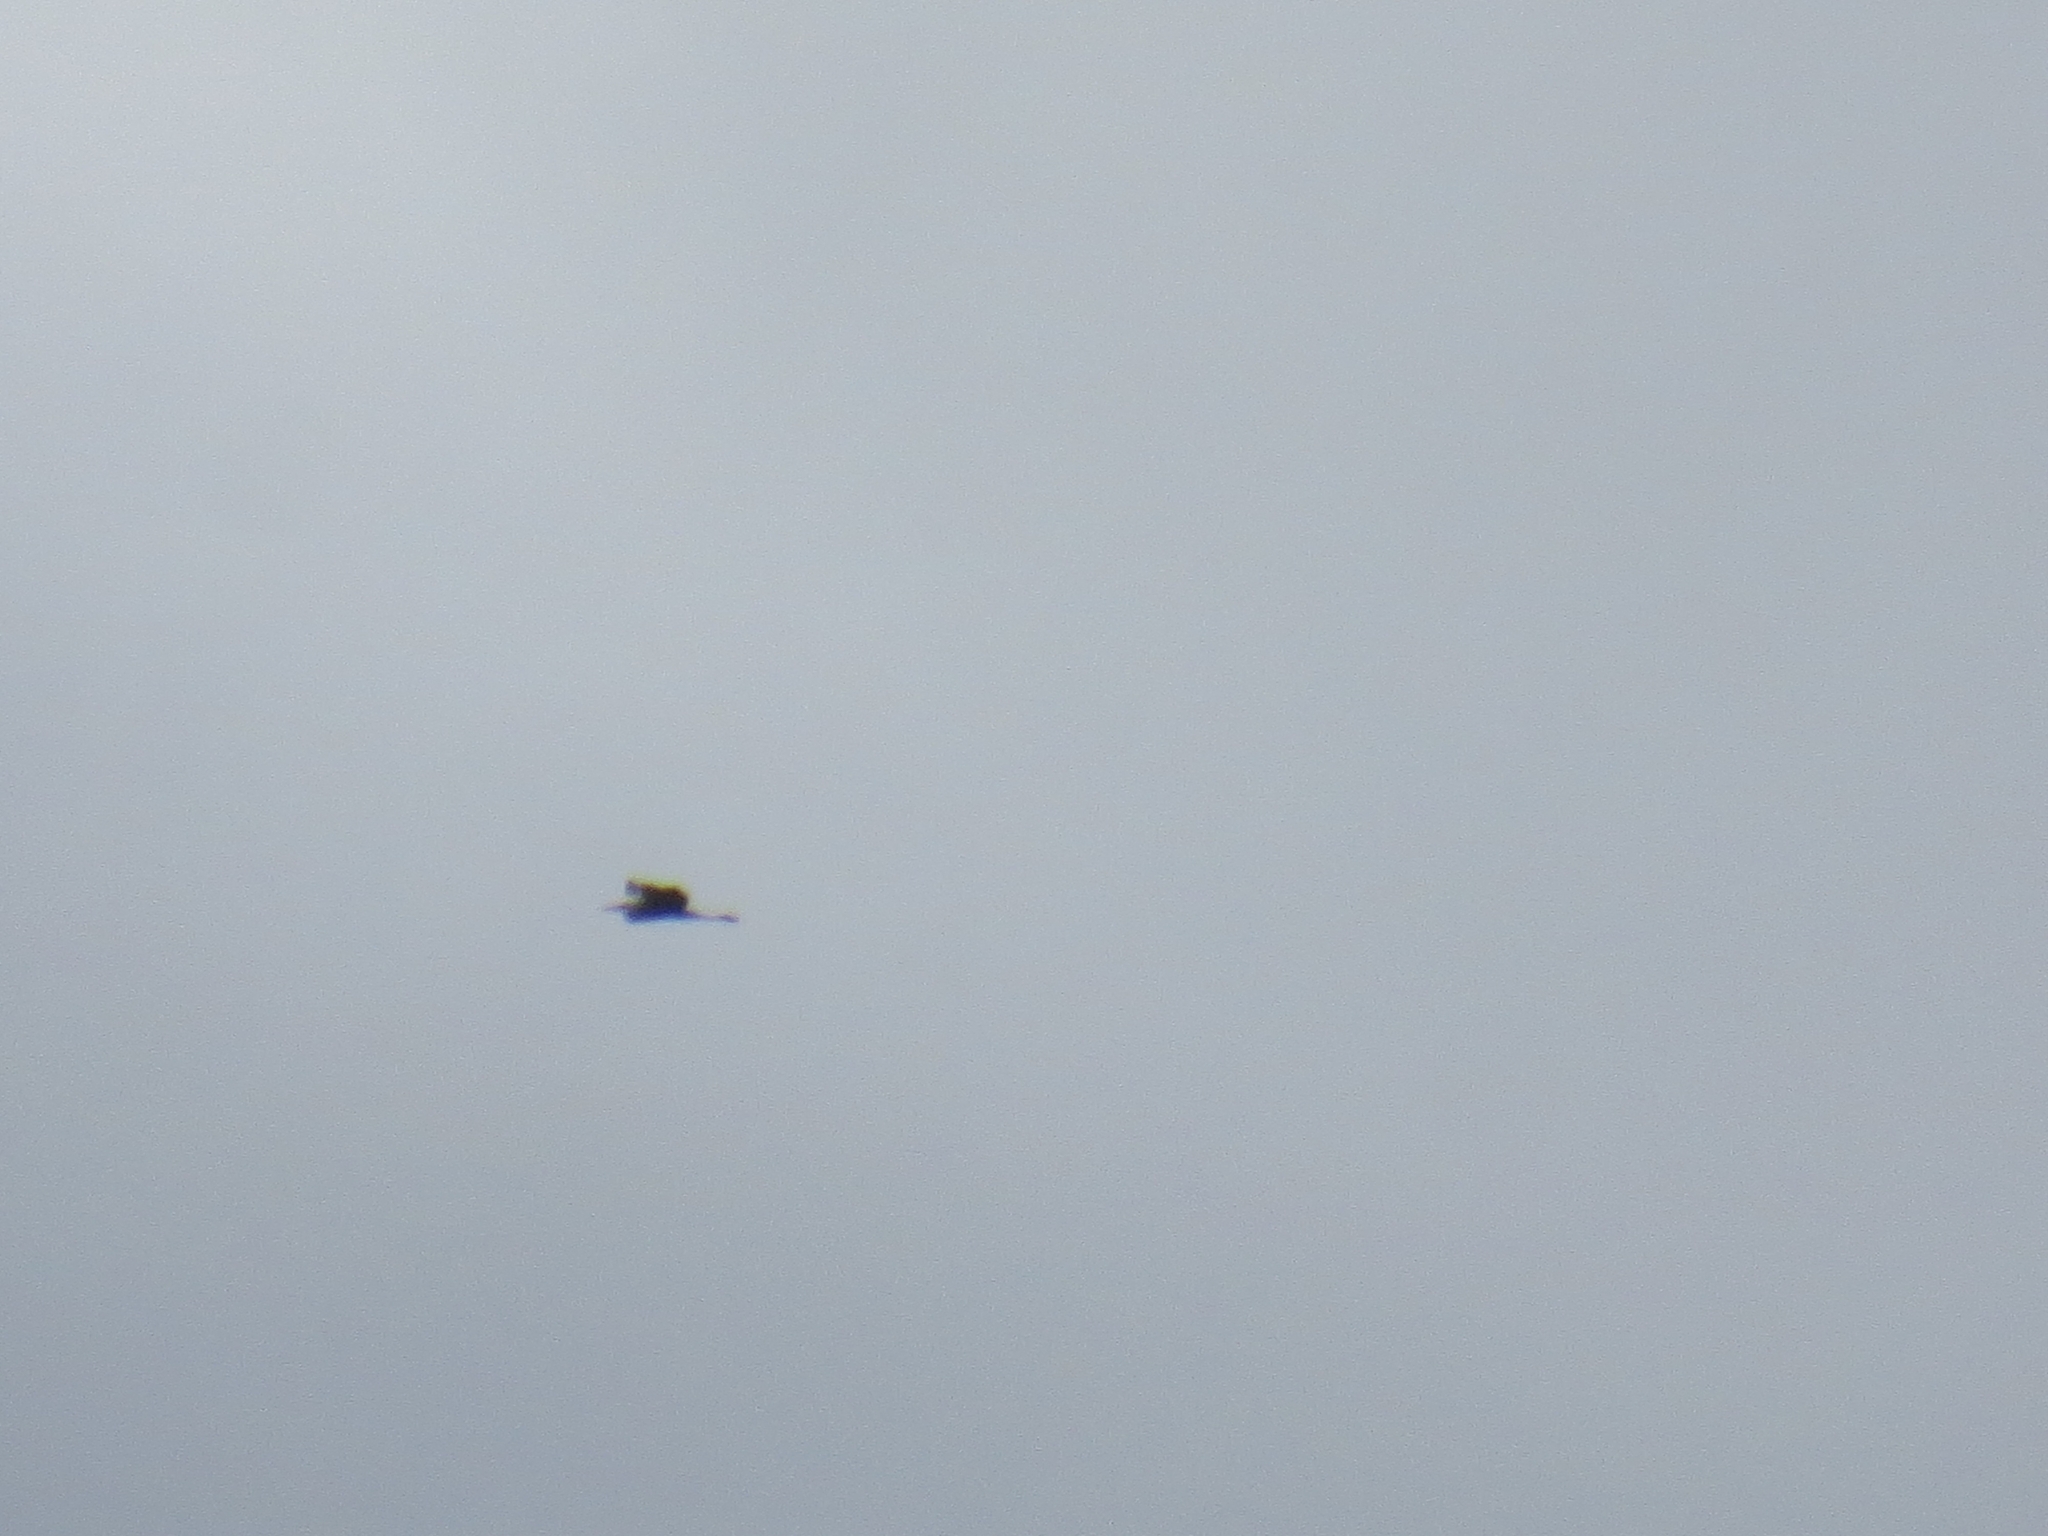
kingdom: Animalia
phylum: Chordata
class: Aves
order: Pelecaniformes
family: Ardeidae
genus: Ardea
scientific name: Ardea cinerea
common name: Grey heron
